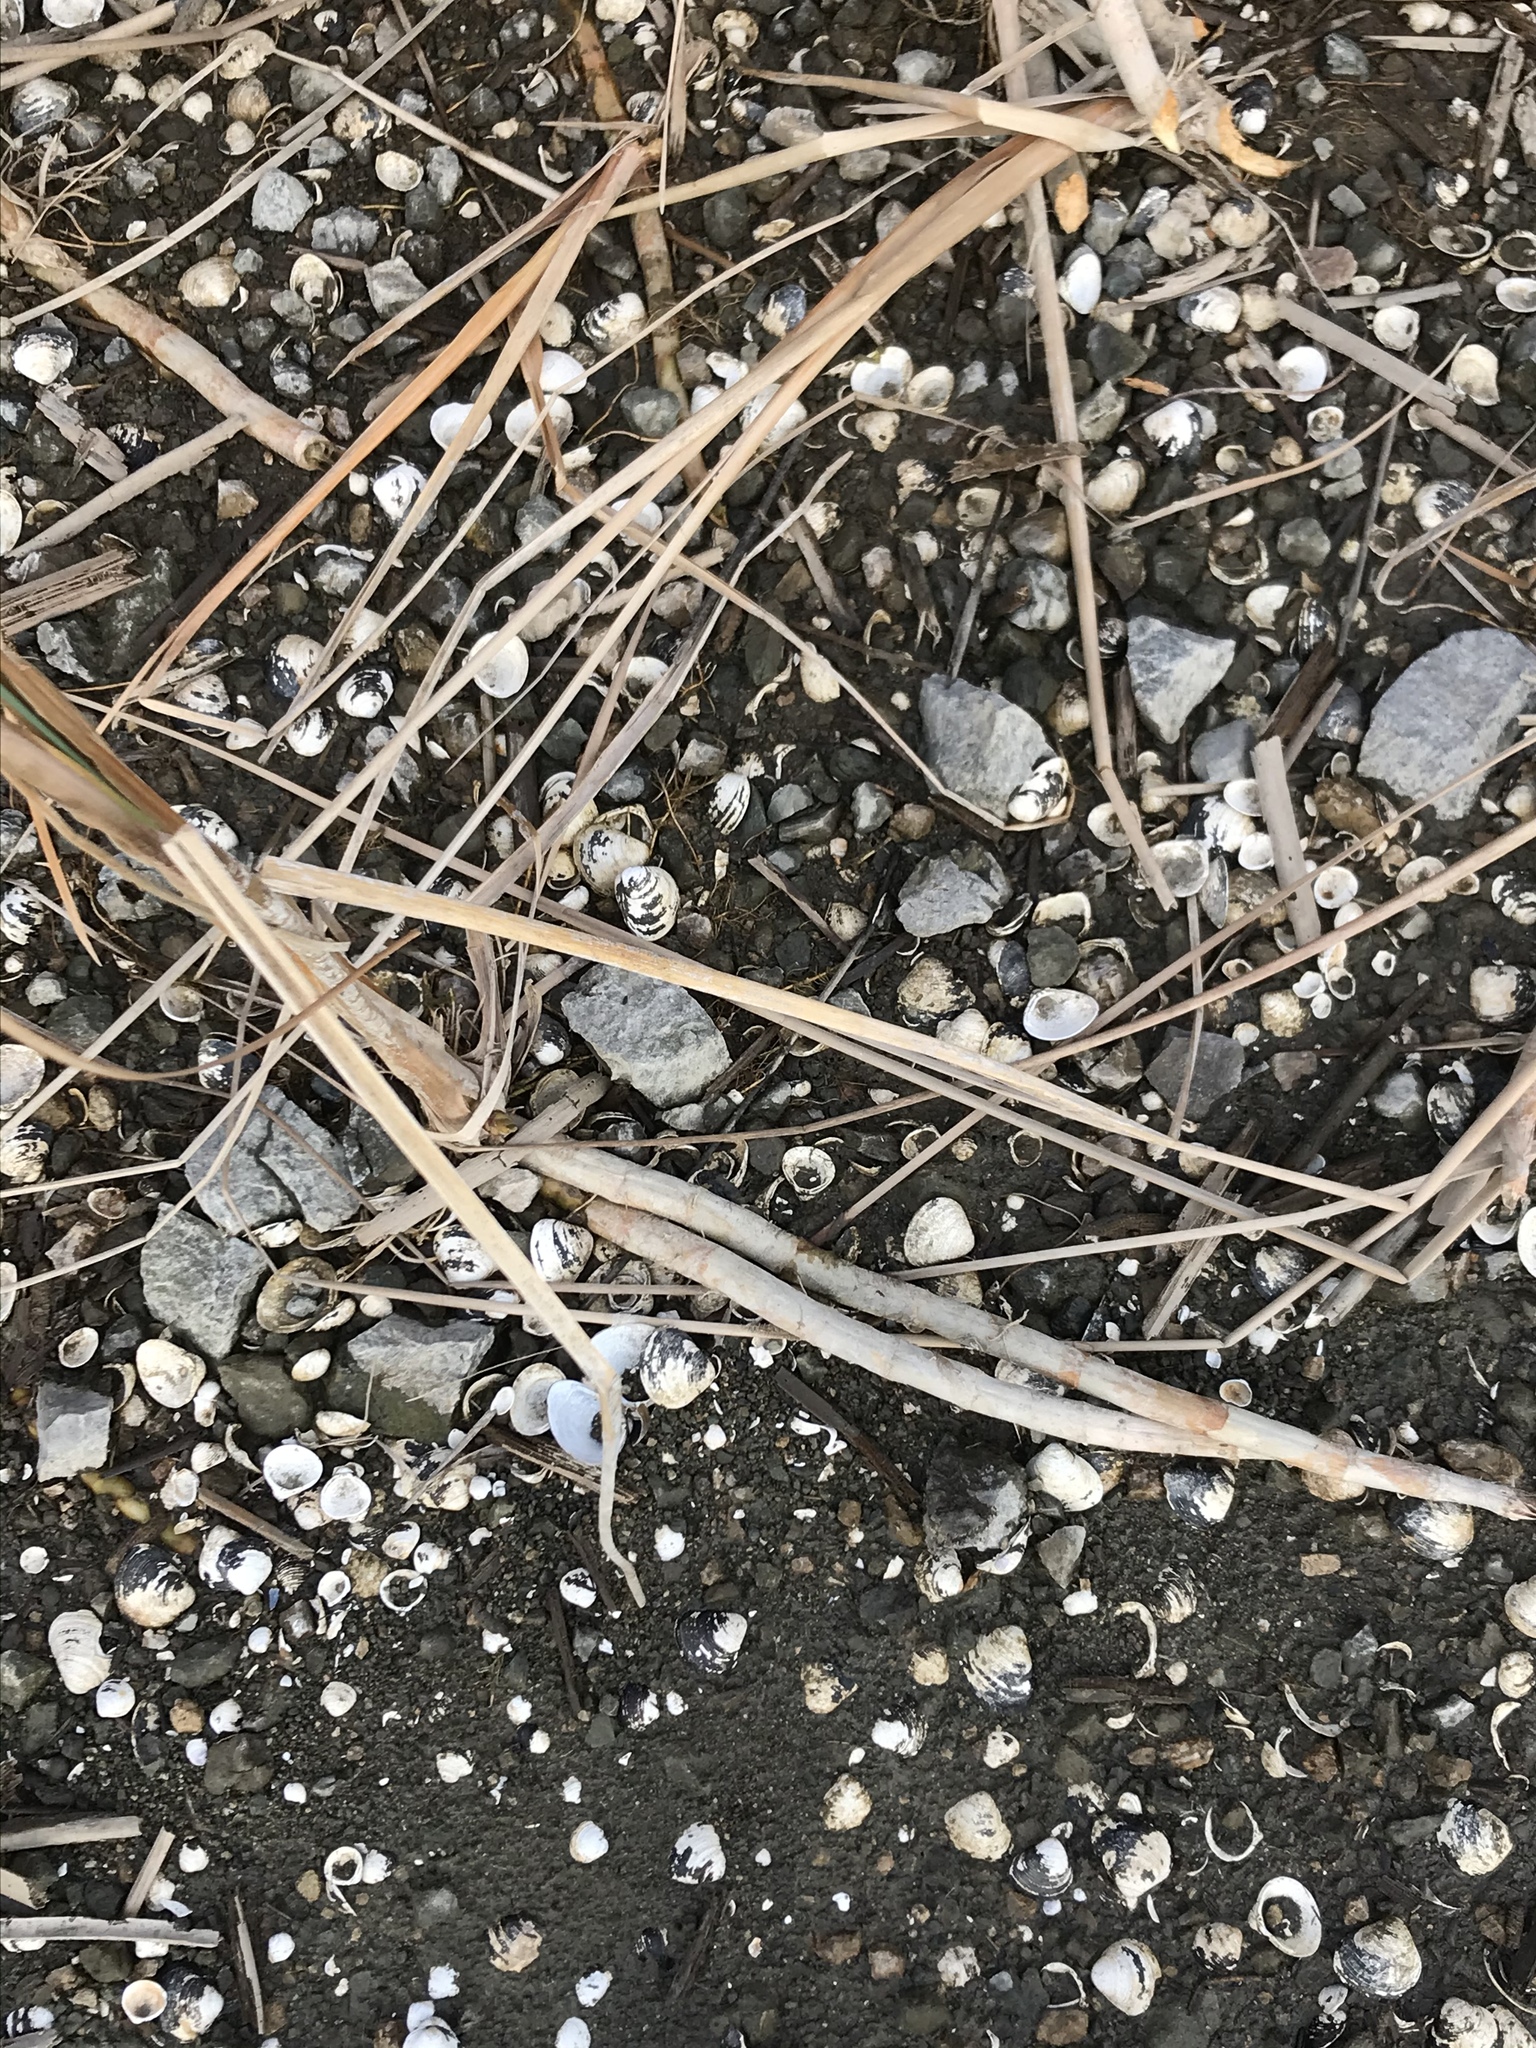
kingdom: Animalia
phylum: Mollusca
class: Bivalvia
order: Venerida
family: Cyrenidae
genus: Corbicula
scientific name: Corbicula fluminea
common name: Asian clam
